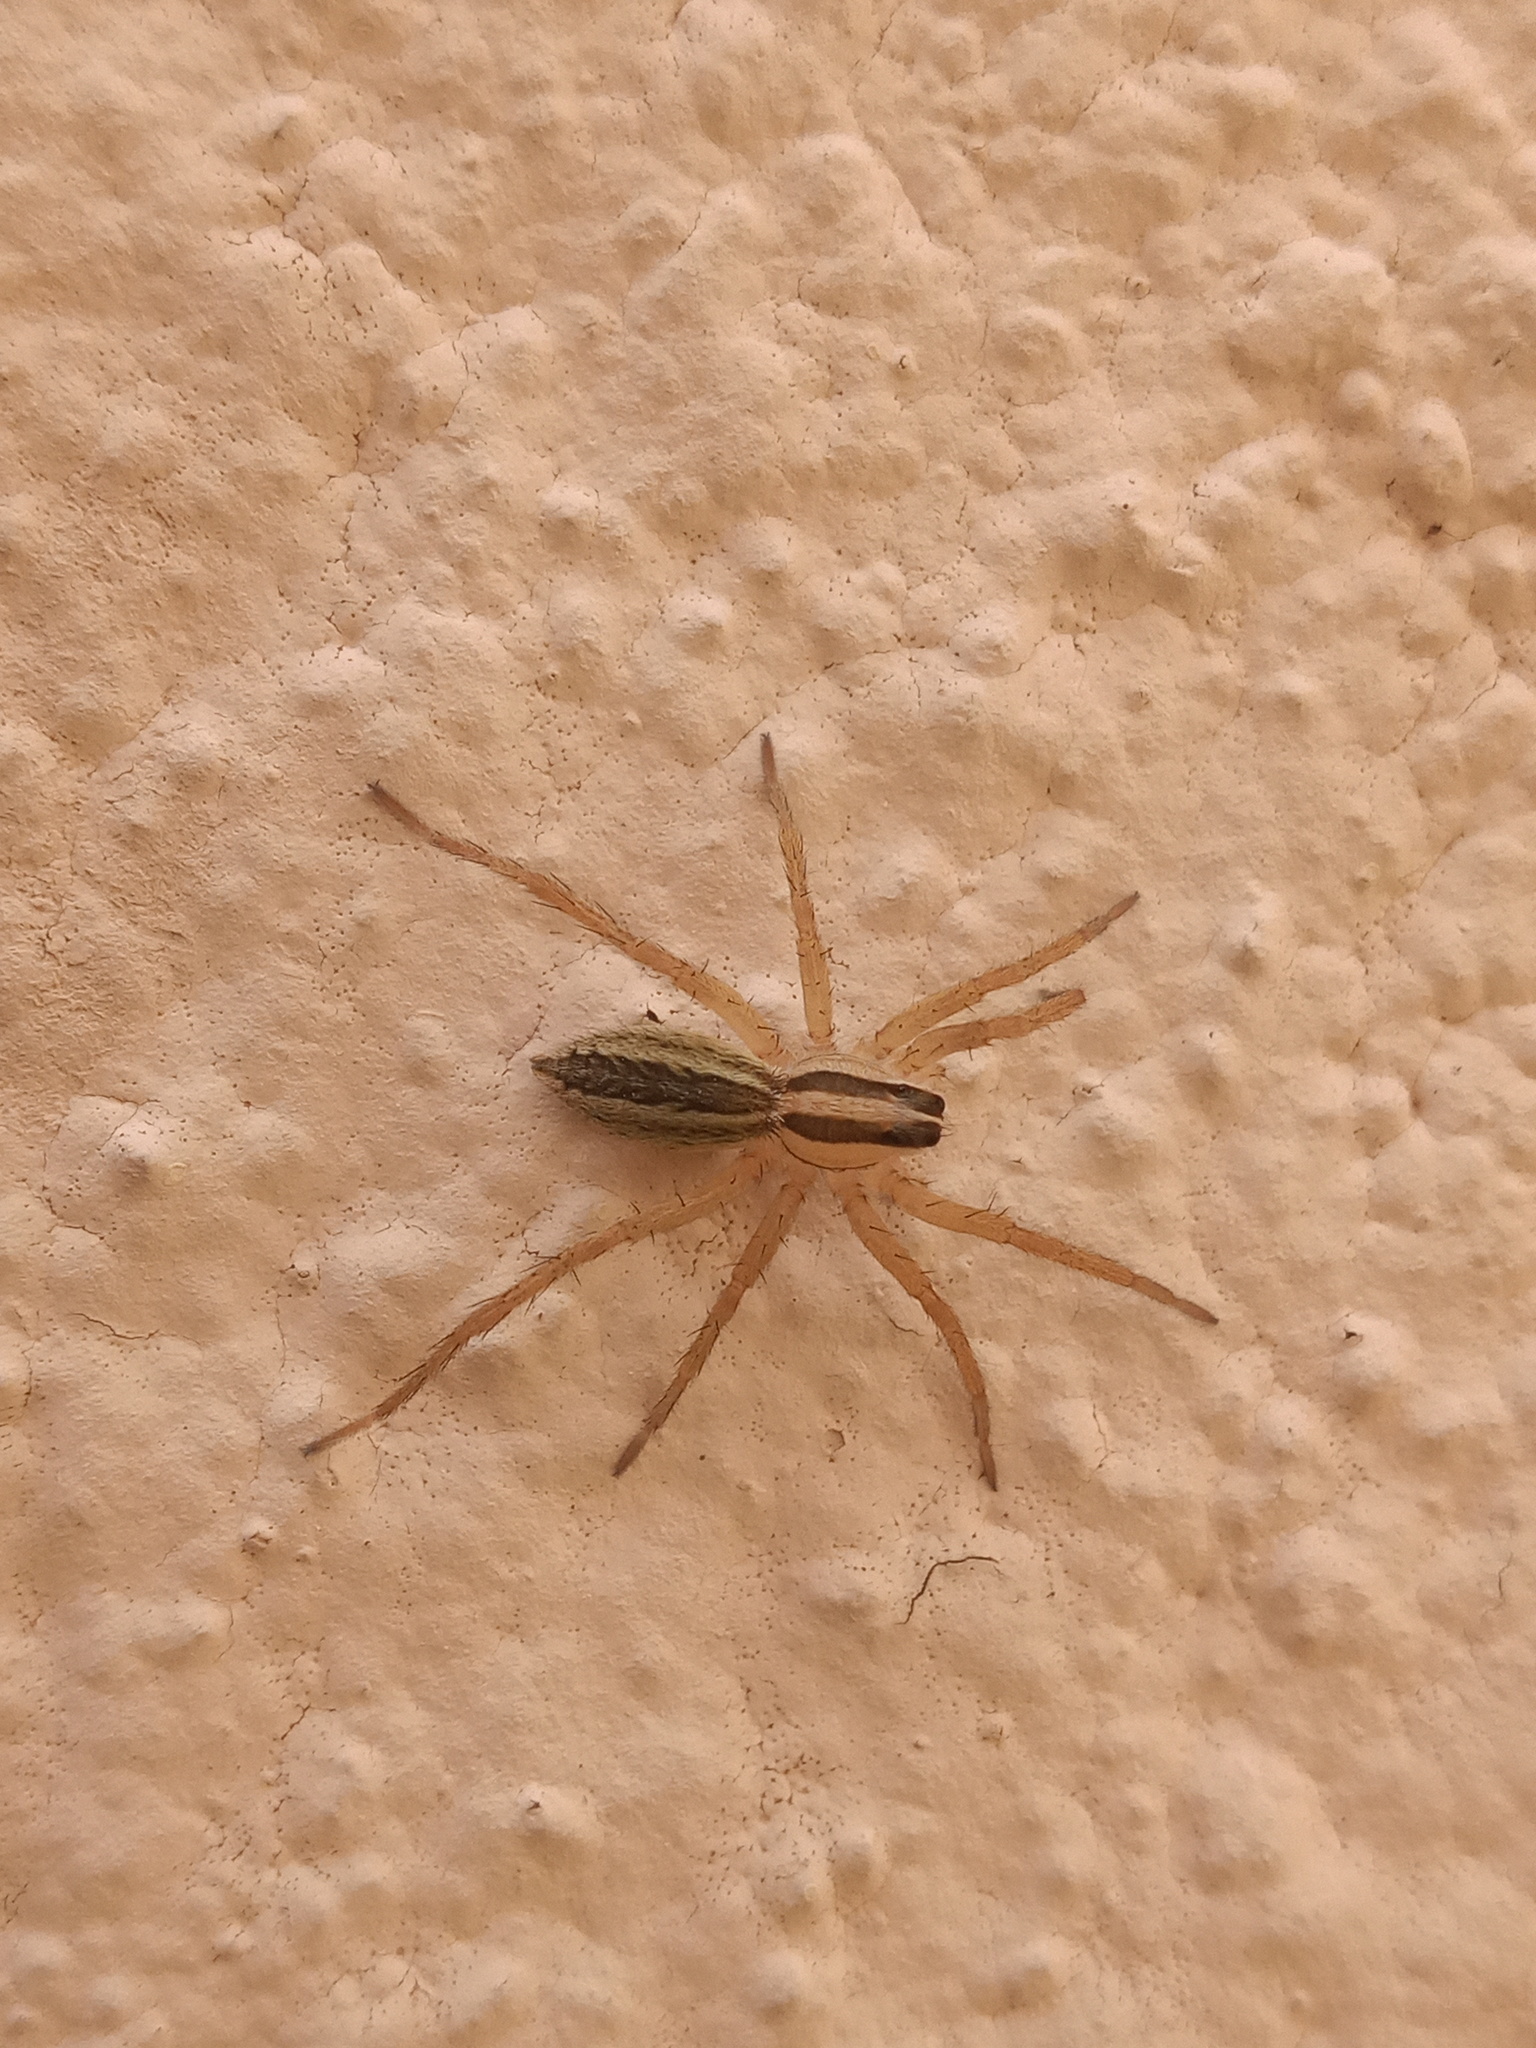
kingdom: Animalia
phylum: Arthropoda
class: Arachnida
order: Araneae
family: Lycosidae
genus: Rabidosa
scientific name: Rabidosa rabida
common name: Rabid wolf spider
